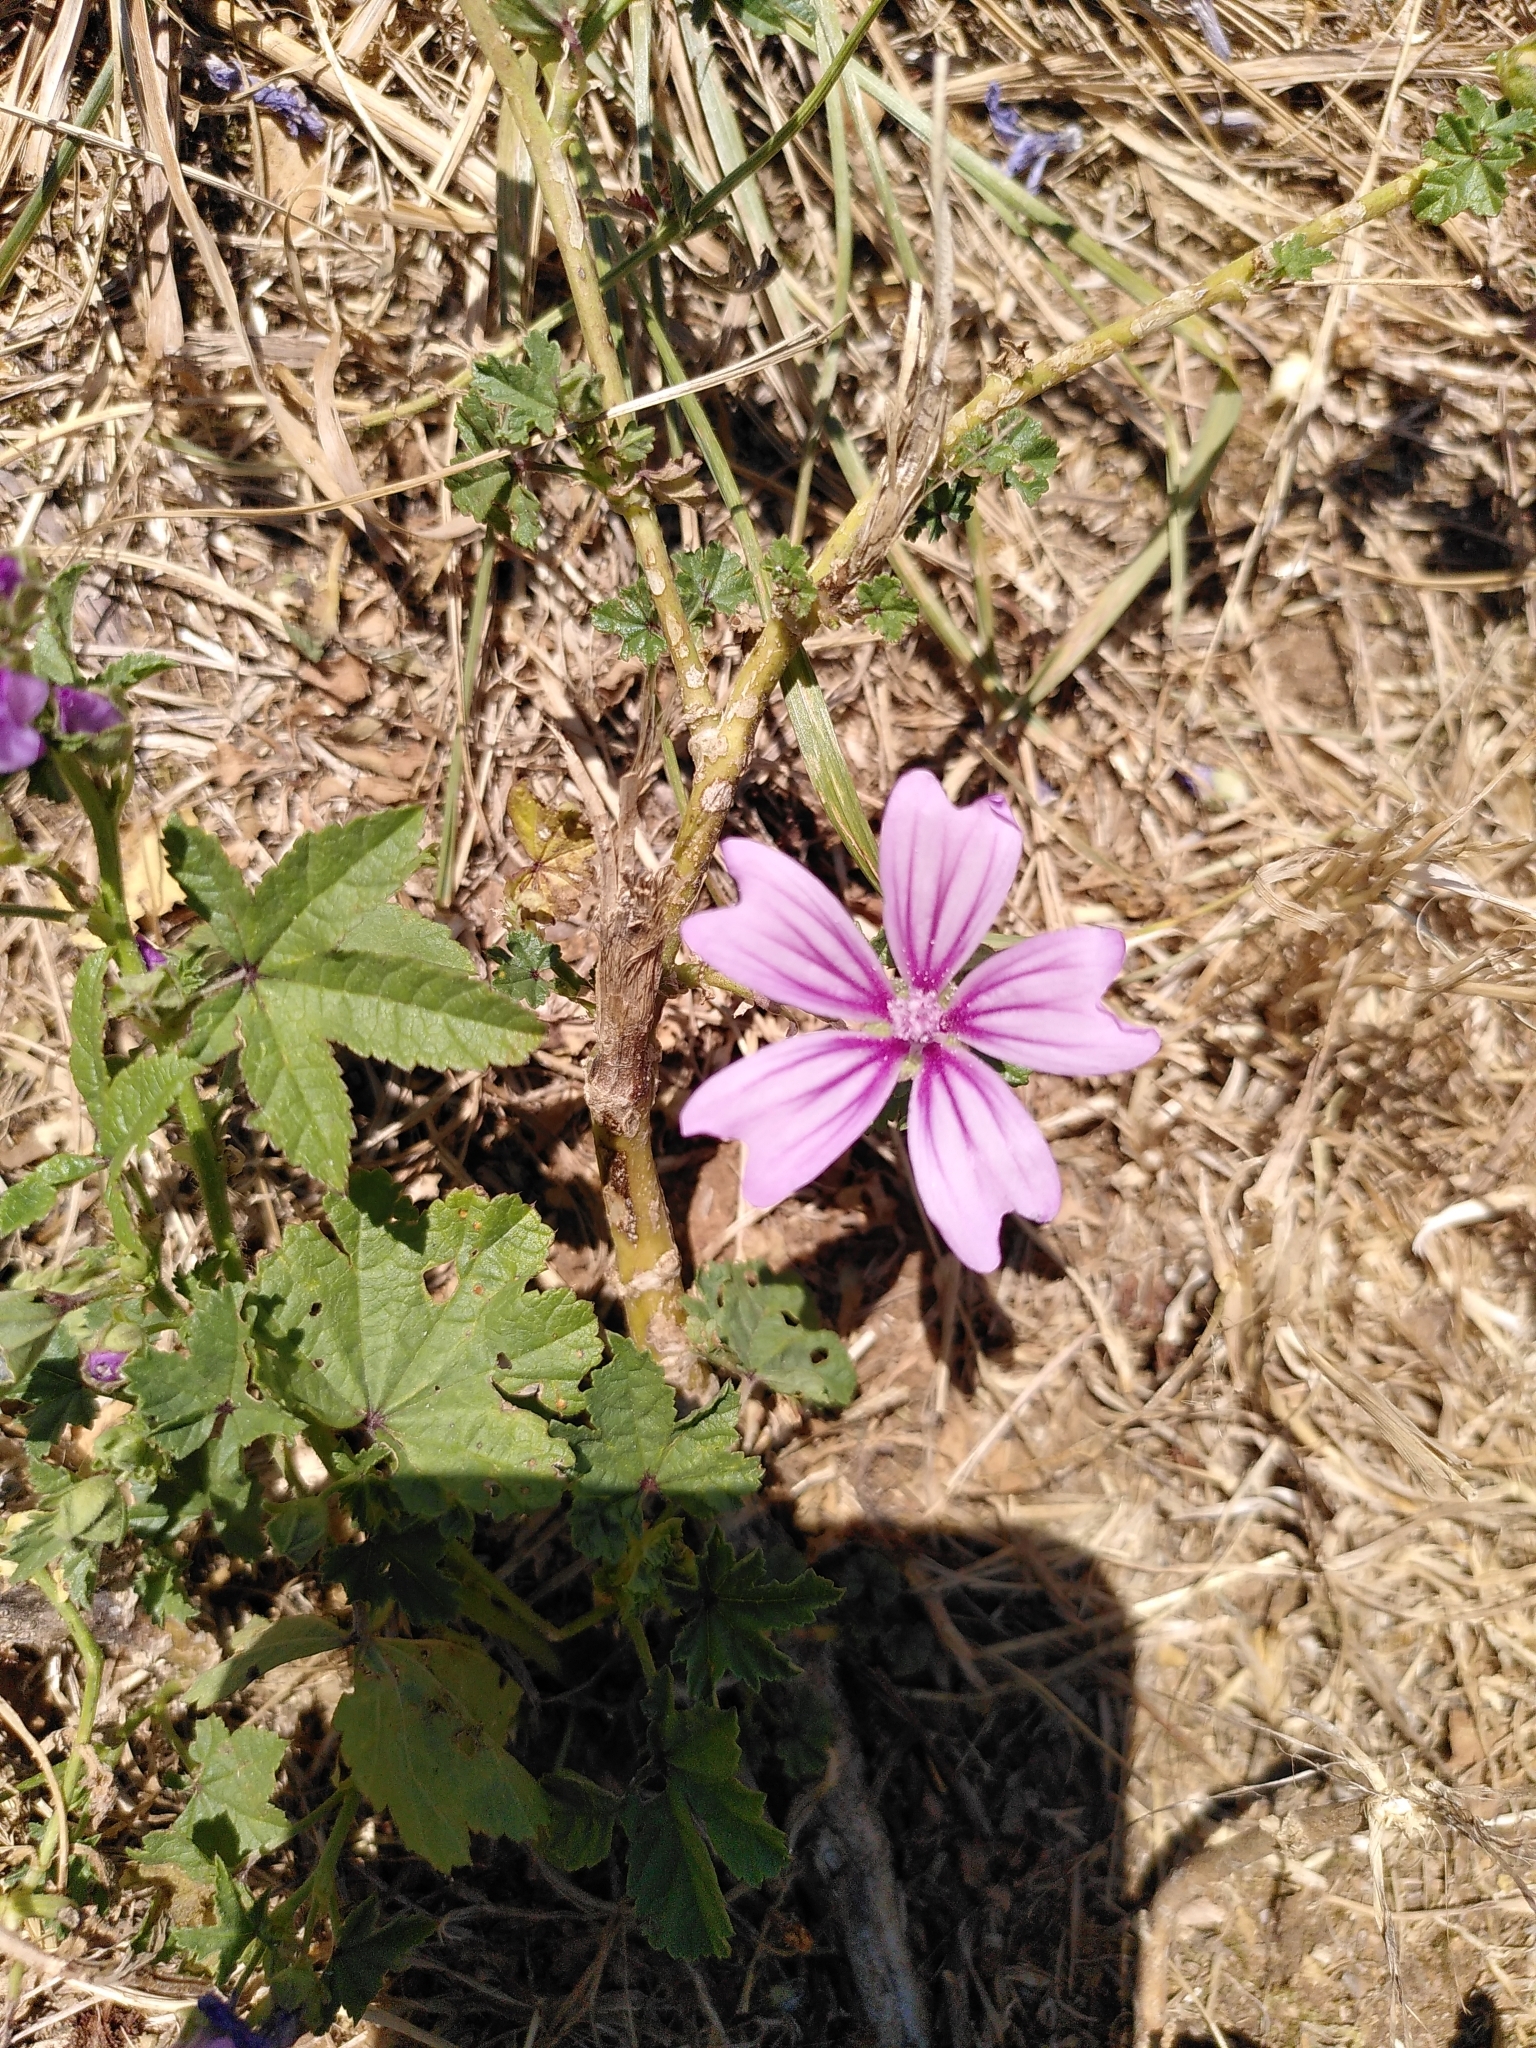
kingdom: Plantae
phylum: Tracheophyta
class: Magnoliopsida
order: Malvales
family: Malvaceae
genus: Malva
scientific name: Malva sylvestris
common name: Common mallow
